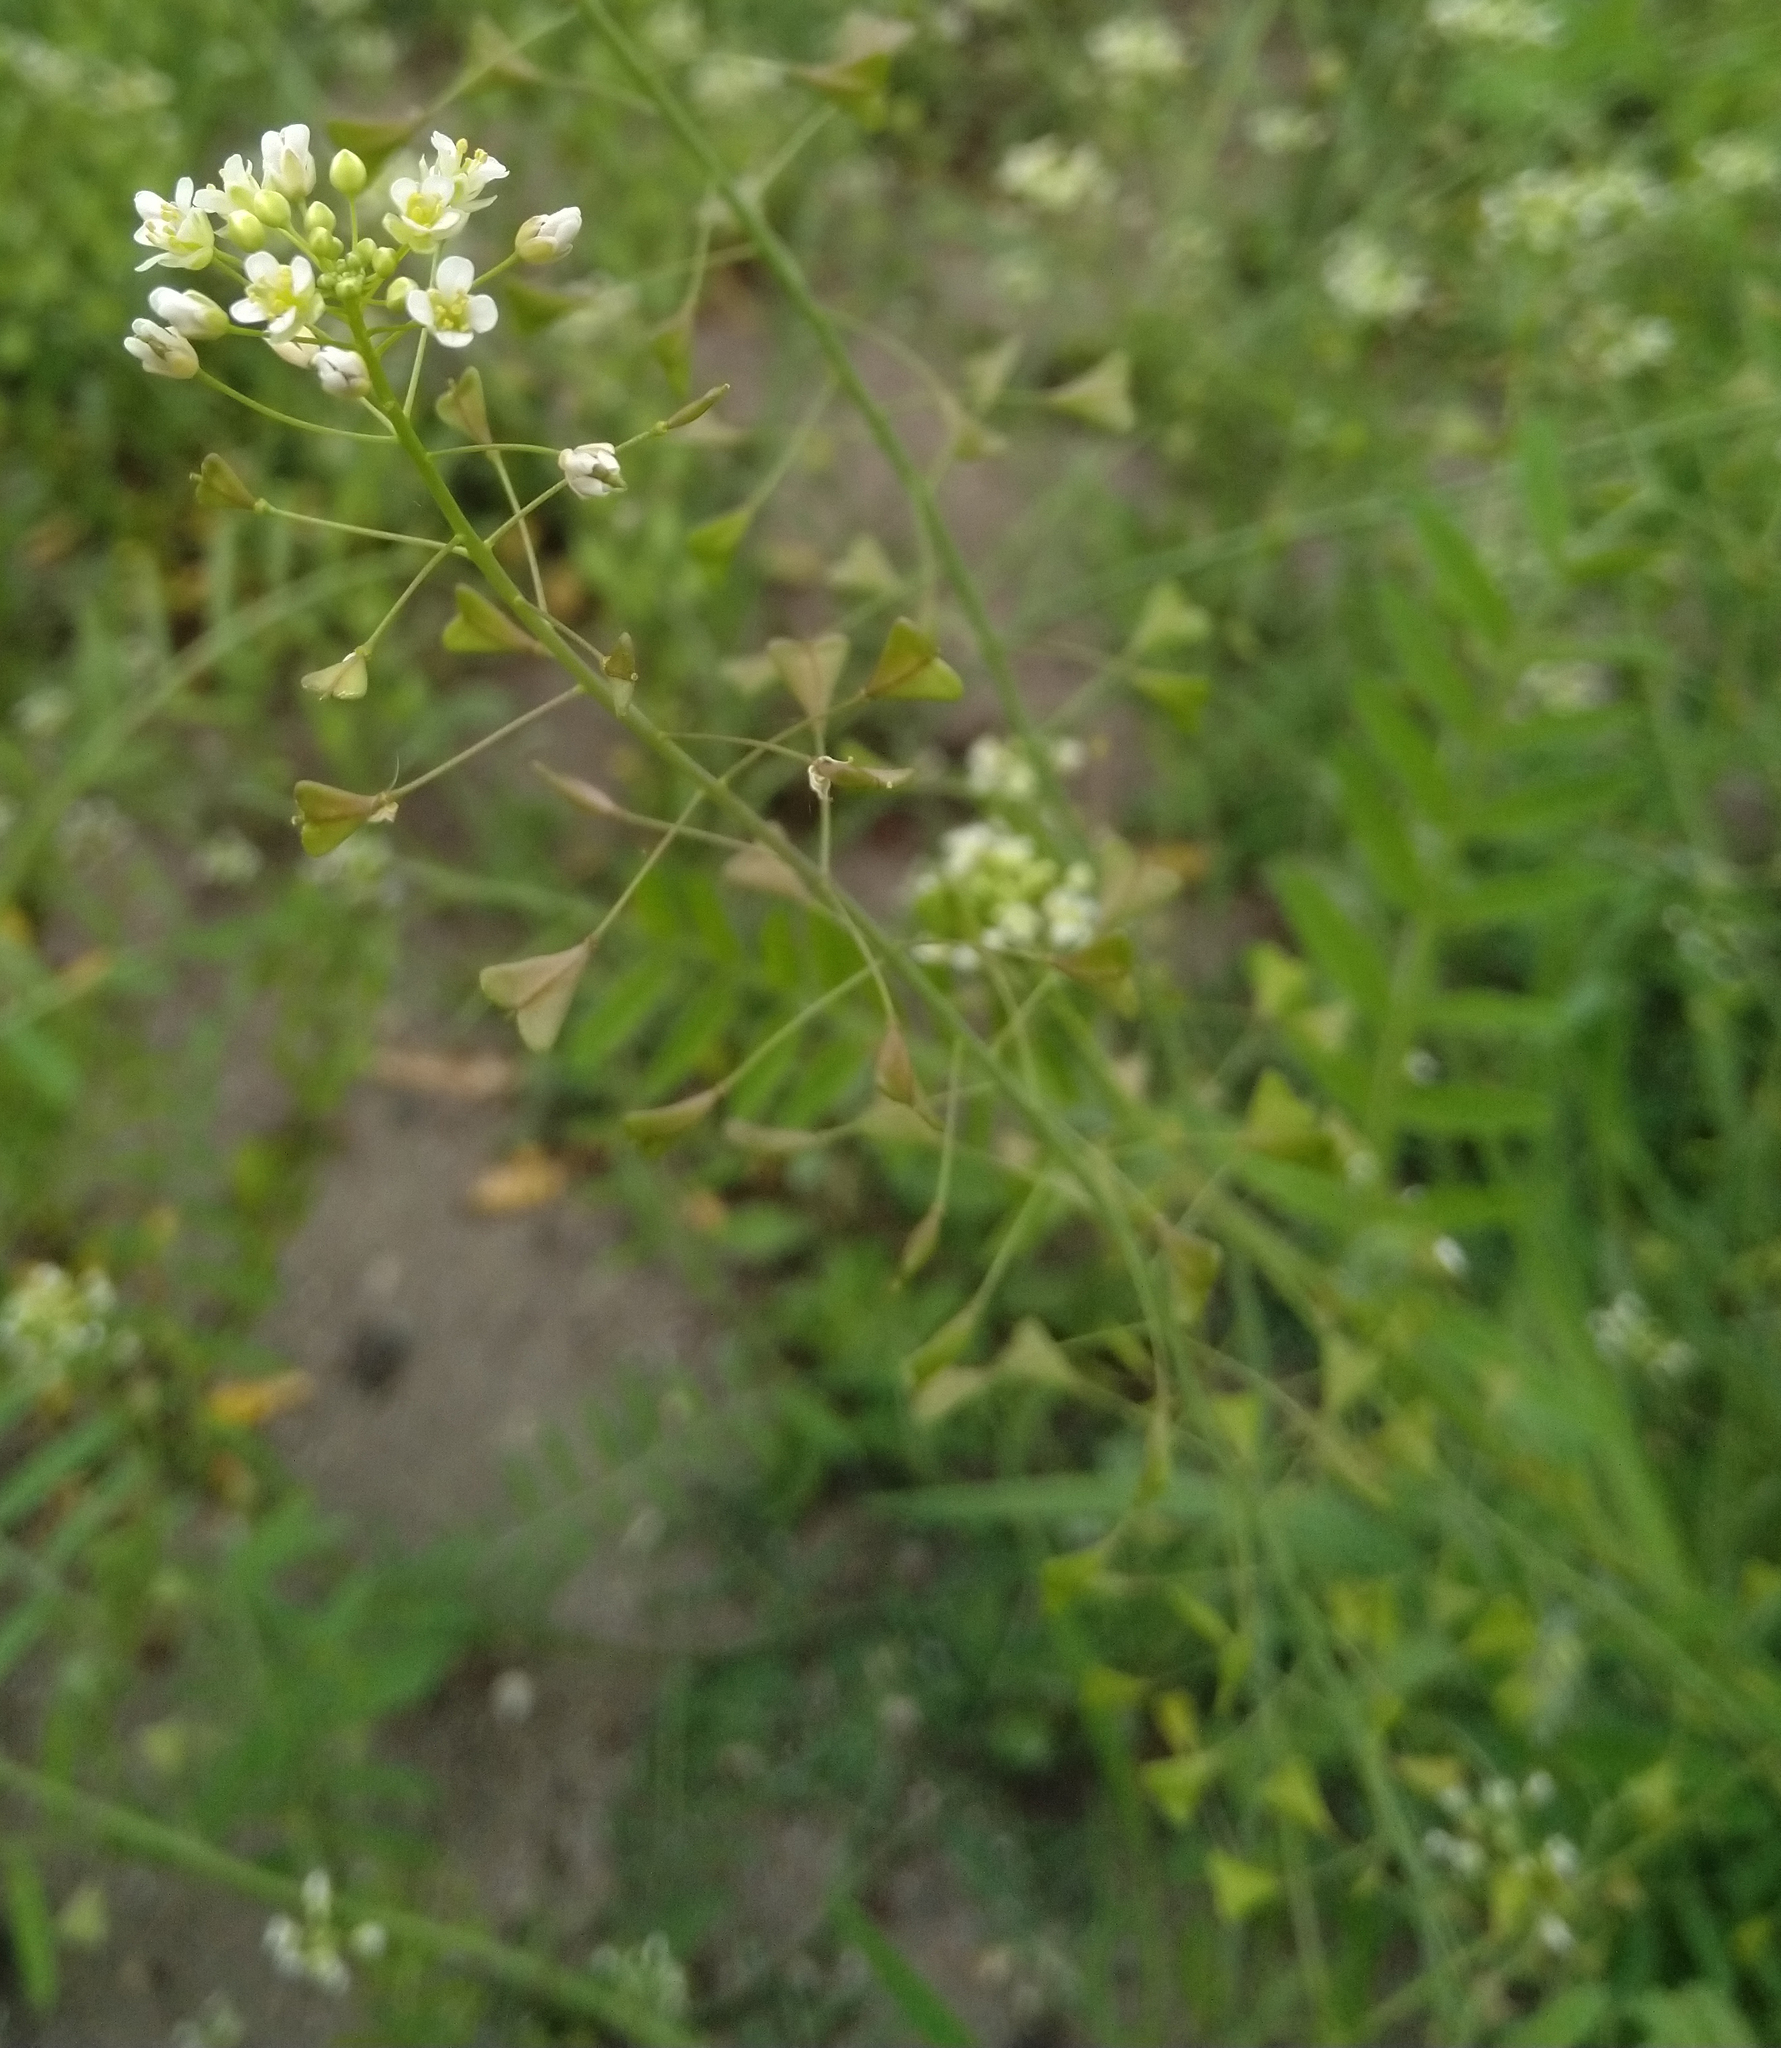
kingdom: Plantae
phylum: Tracheophyta
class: Magnoliopsida
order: Brassicales
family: Brassicaceae
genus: Capsella
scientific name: Capsella bursa-pastoris
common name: Shepherd's purse
